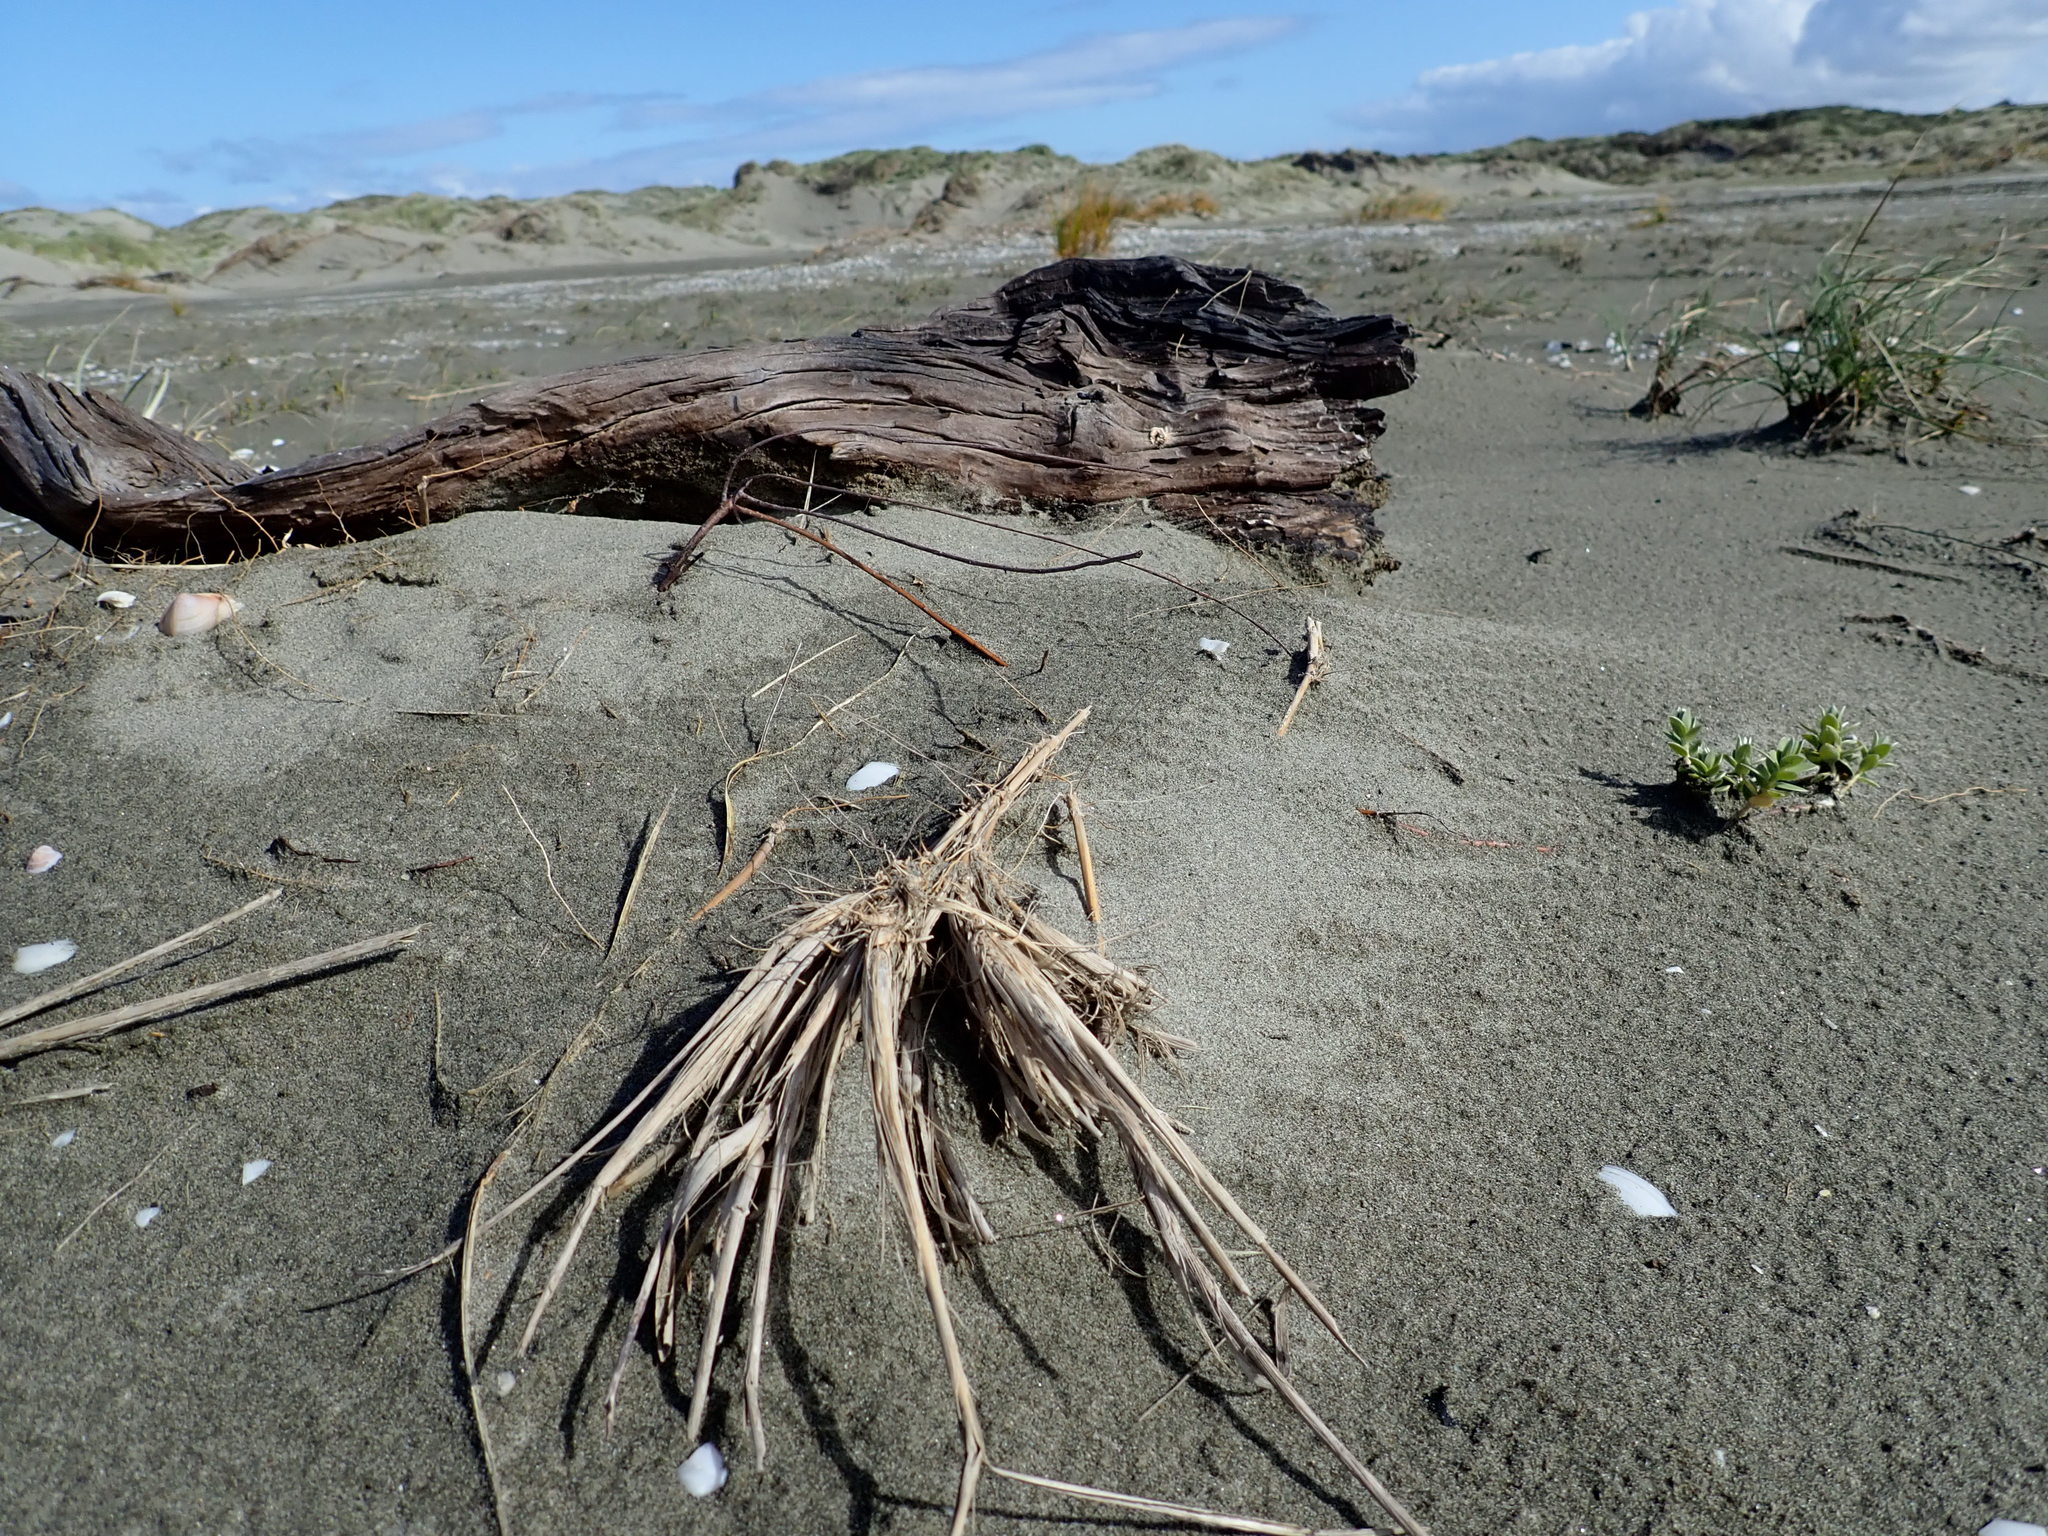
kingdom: Plantae
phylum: Tracheophyta
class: Magnoliopsida
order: Malvales
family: Thymelaeaceae
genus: Pimelea
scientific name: Pimelea villosa
